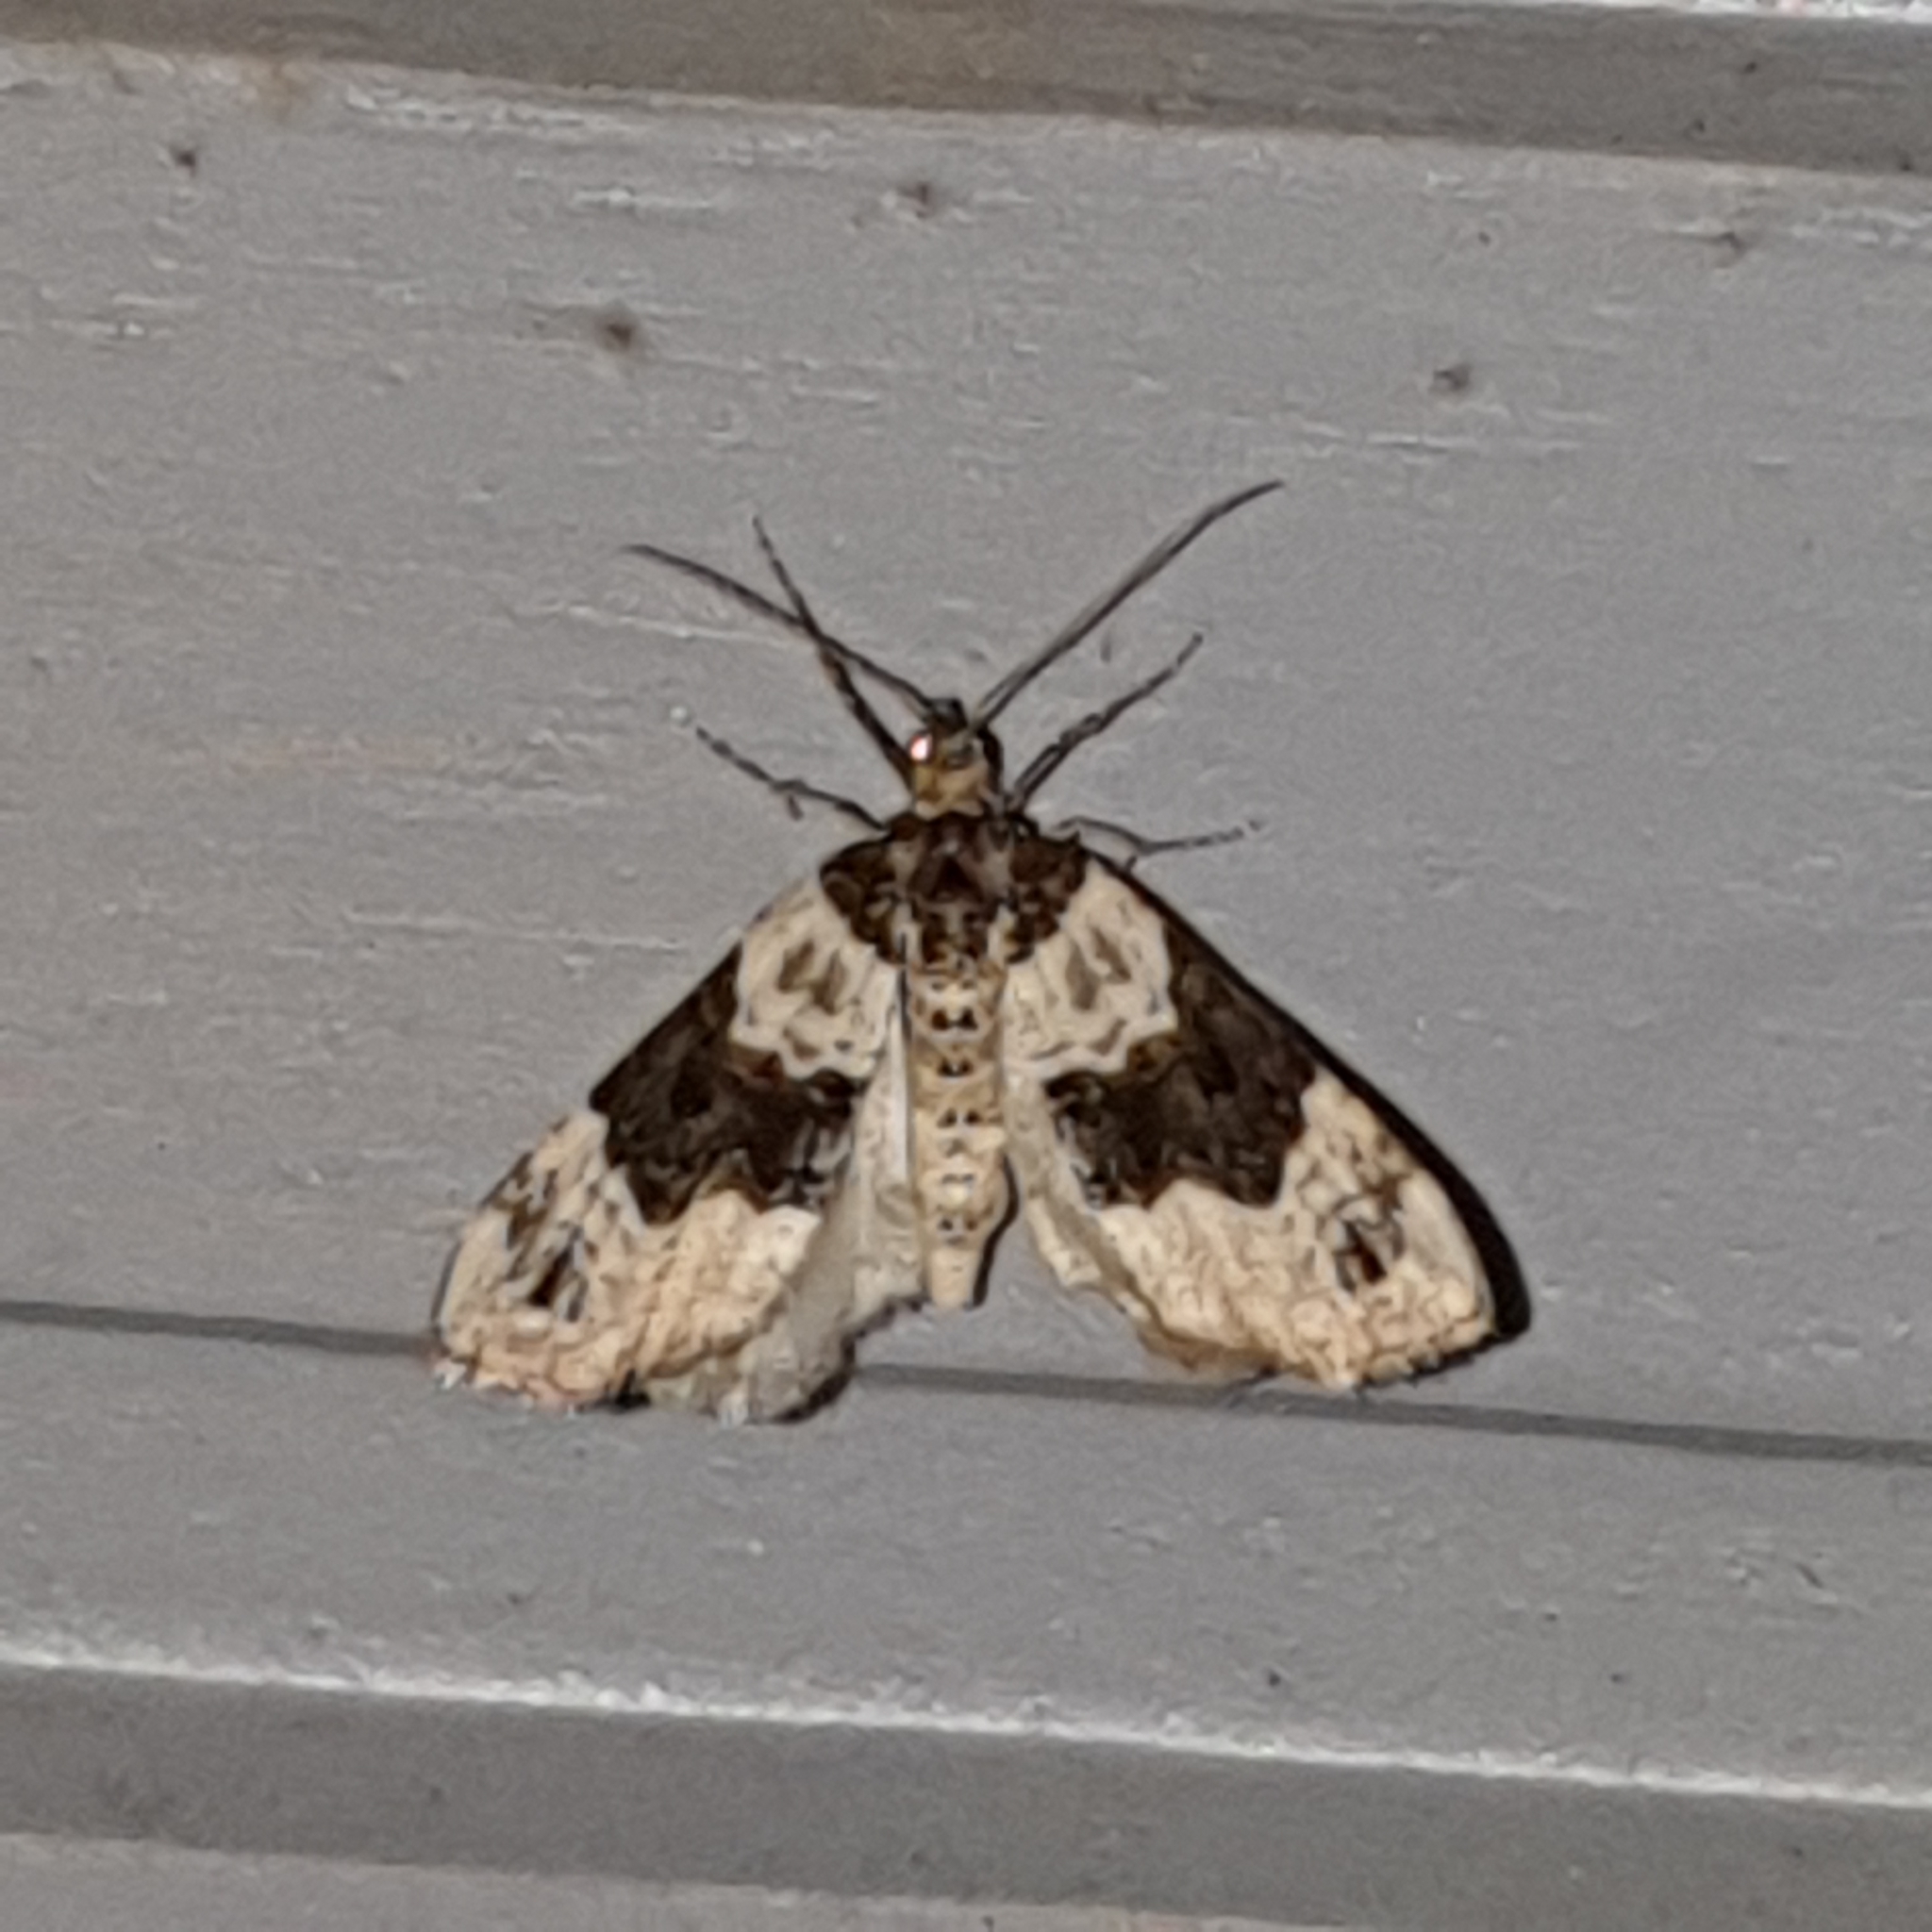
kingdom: Animalia
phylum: Arthropoda
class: Insecta
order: Lepidoptera
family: Geometridae
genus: Cosmorhoe
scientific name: Cosmorhoe ocellata
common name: Purple bar
